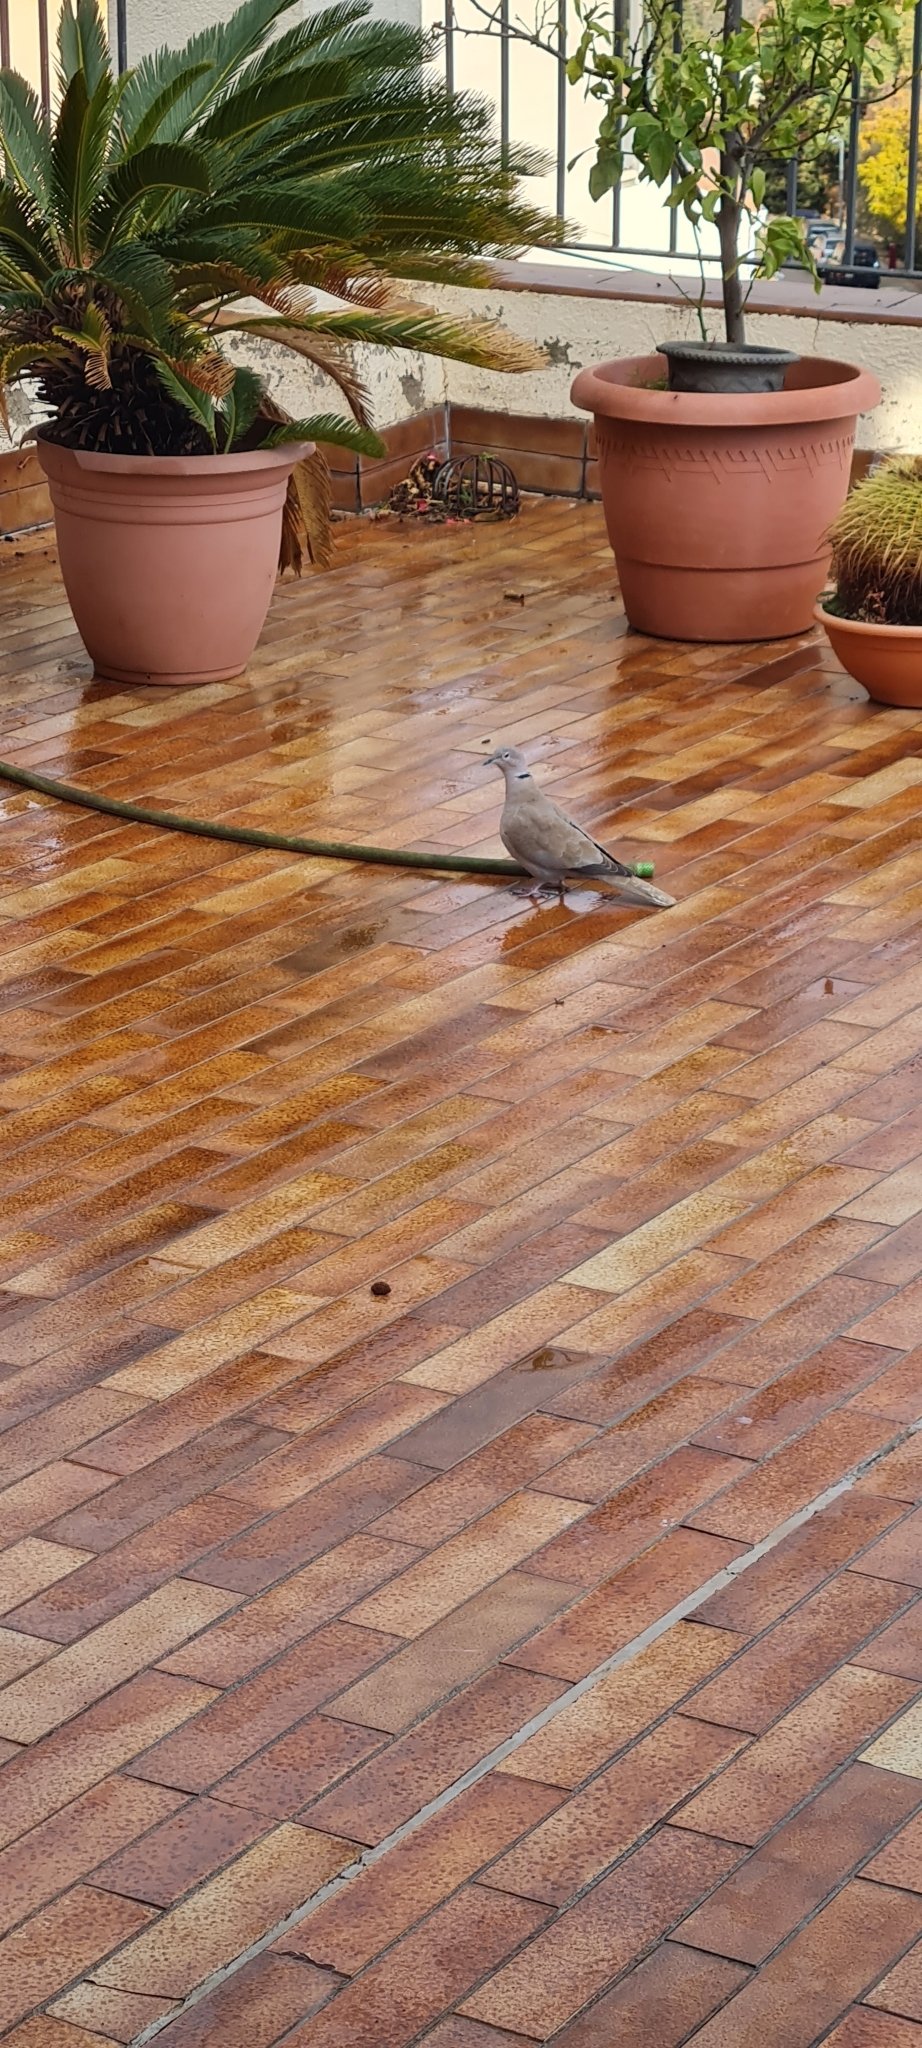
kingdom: Animalia
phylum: Chordata
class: Aves
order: Columbiformes
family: Columbidae
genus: Streptopelia
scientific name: Streptopelia decaocto
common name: Eurasian collared dove
